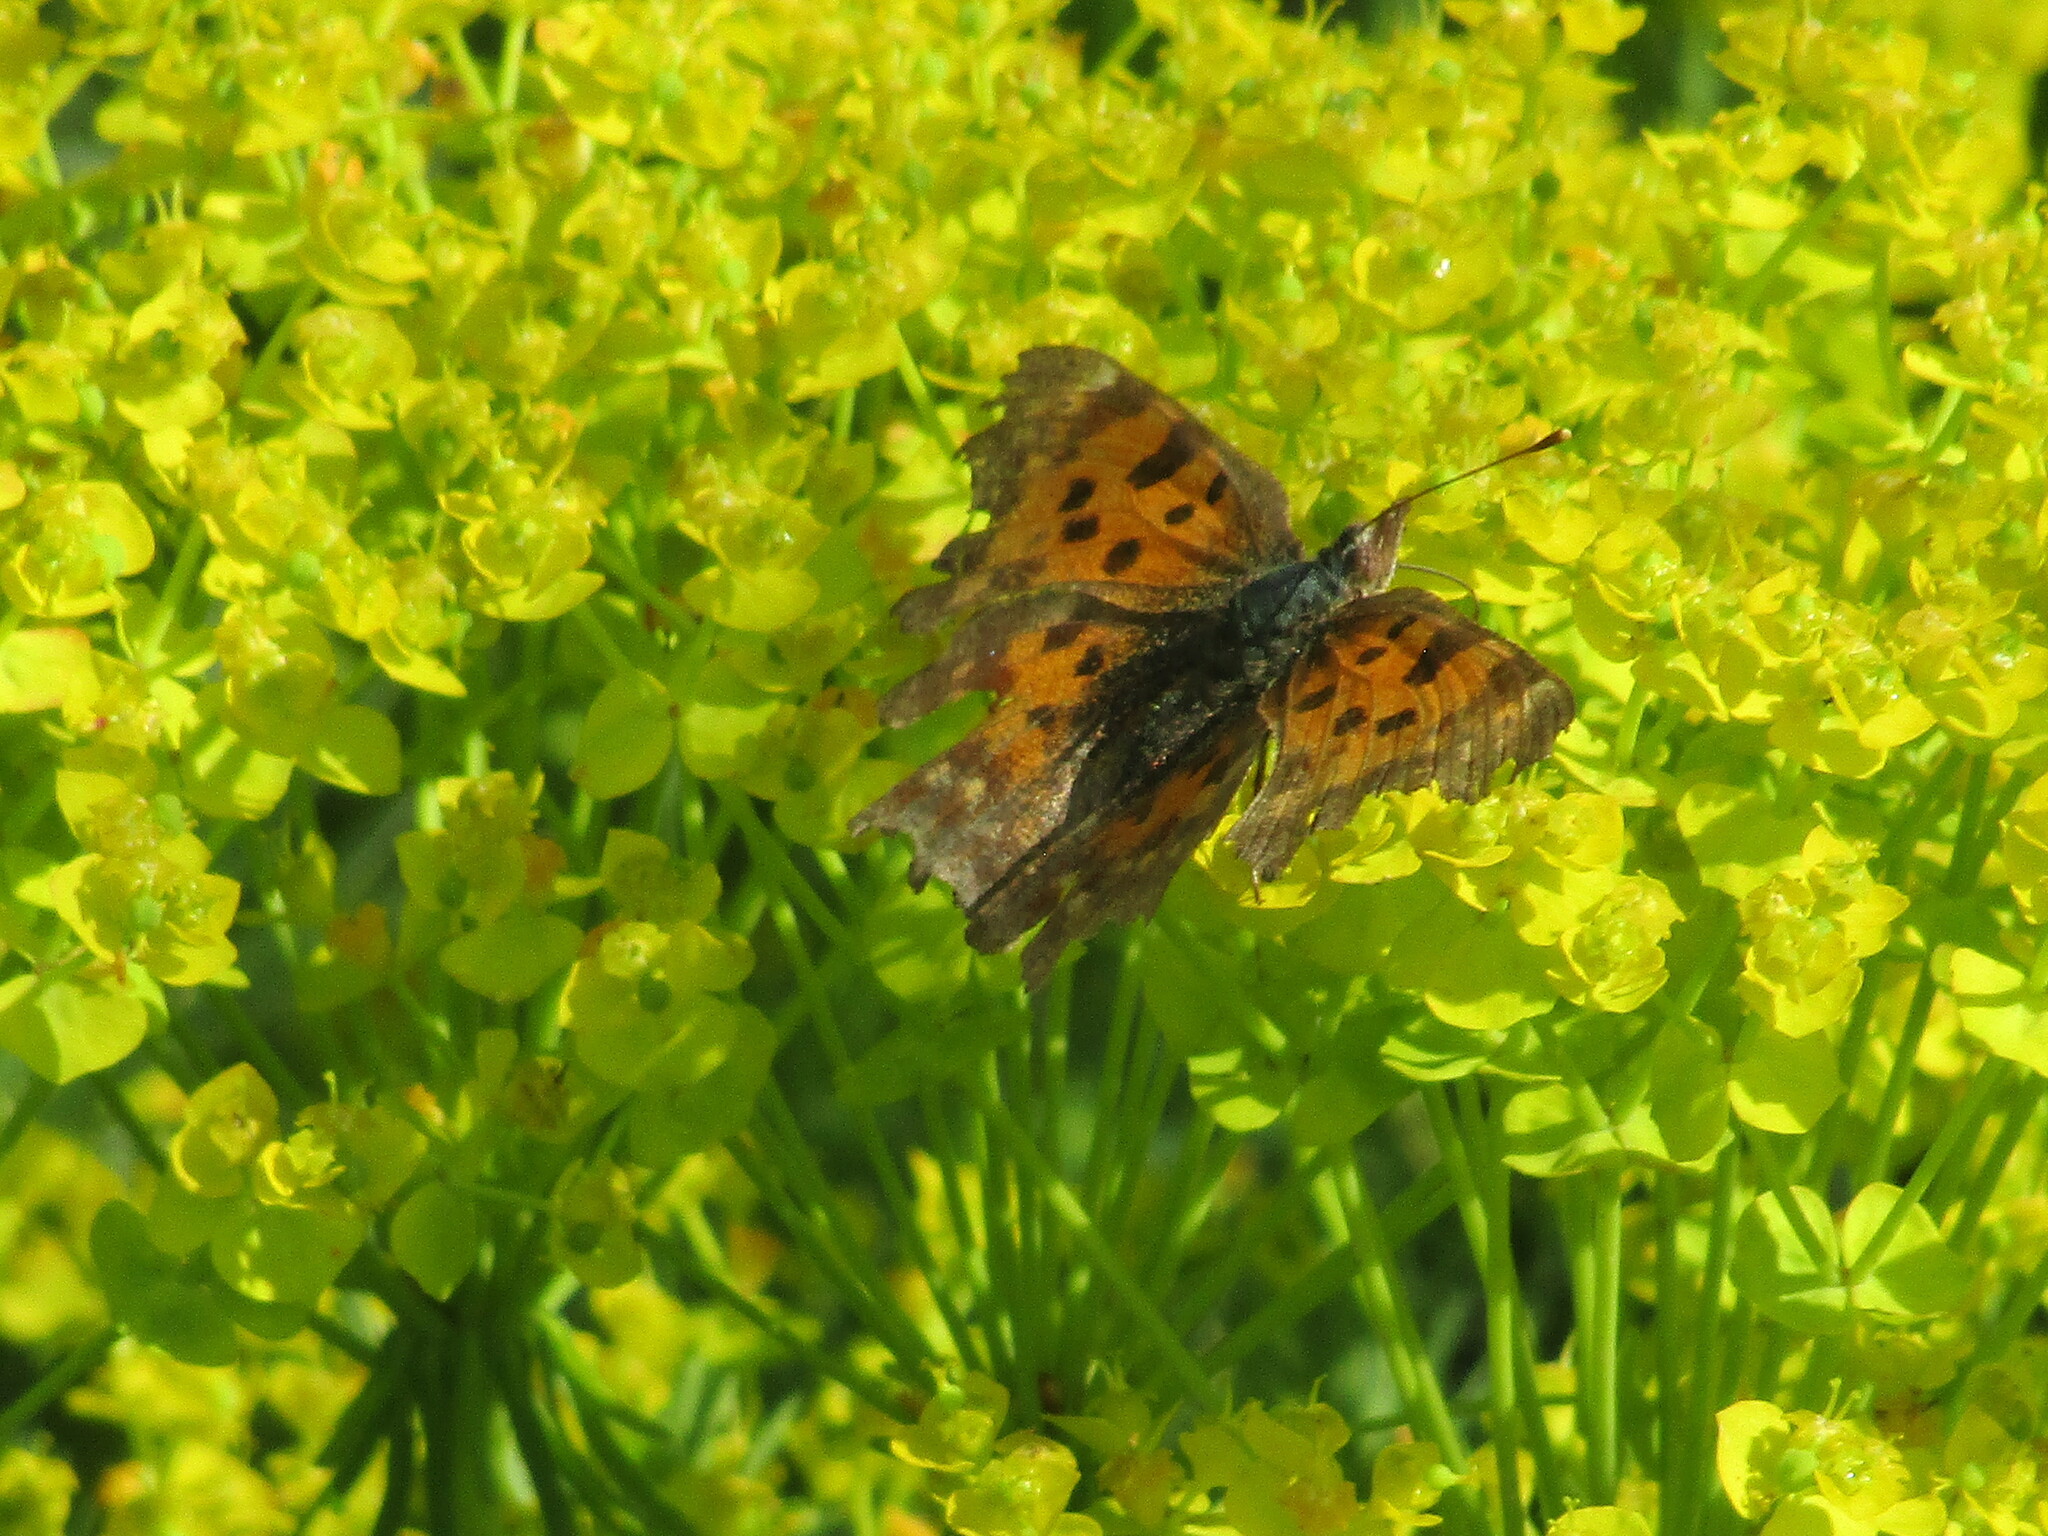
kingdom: Animalia
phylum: Arthropoda
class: Insecta
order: Lepidoptera
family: Nymphalidae
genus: Polygonia
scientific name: Polygonia c-album
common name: Comma
